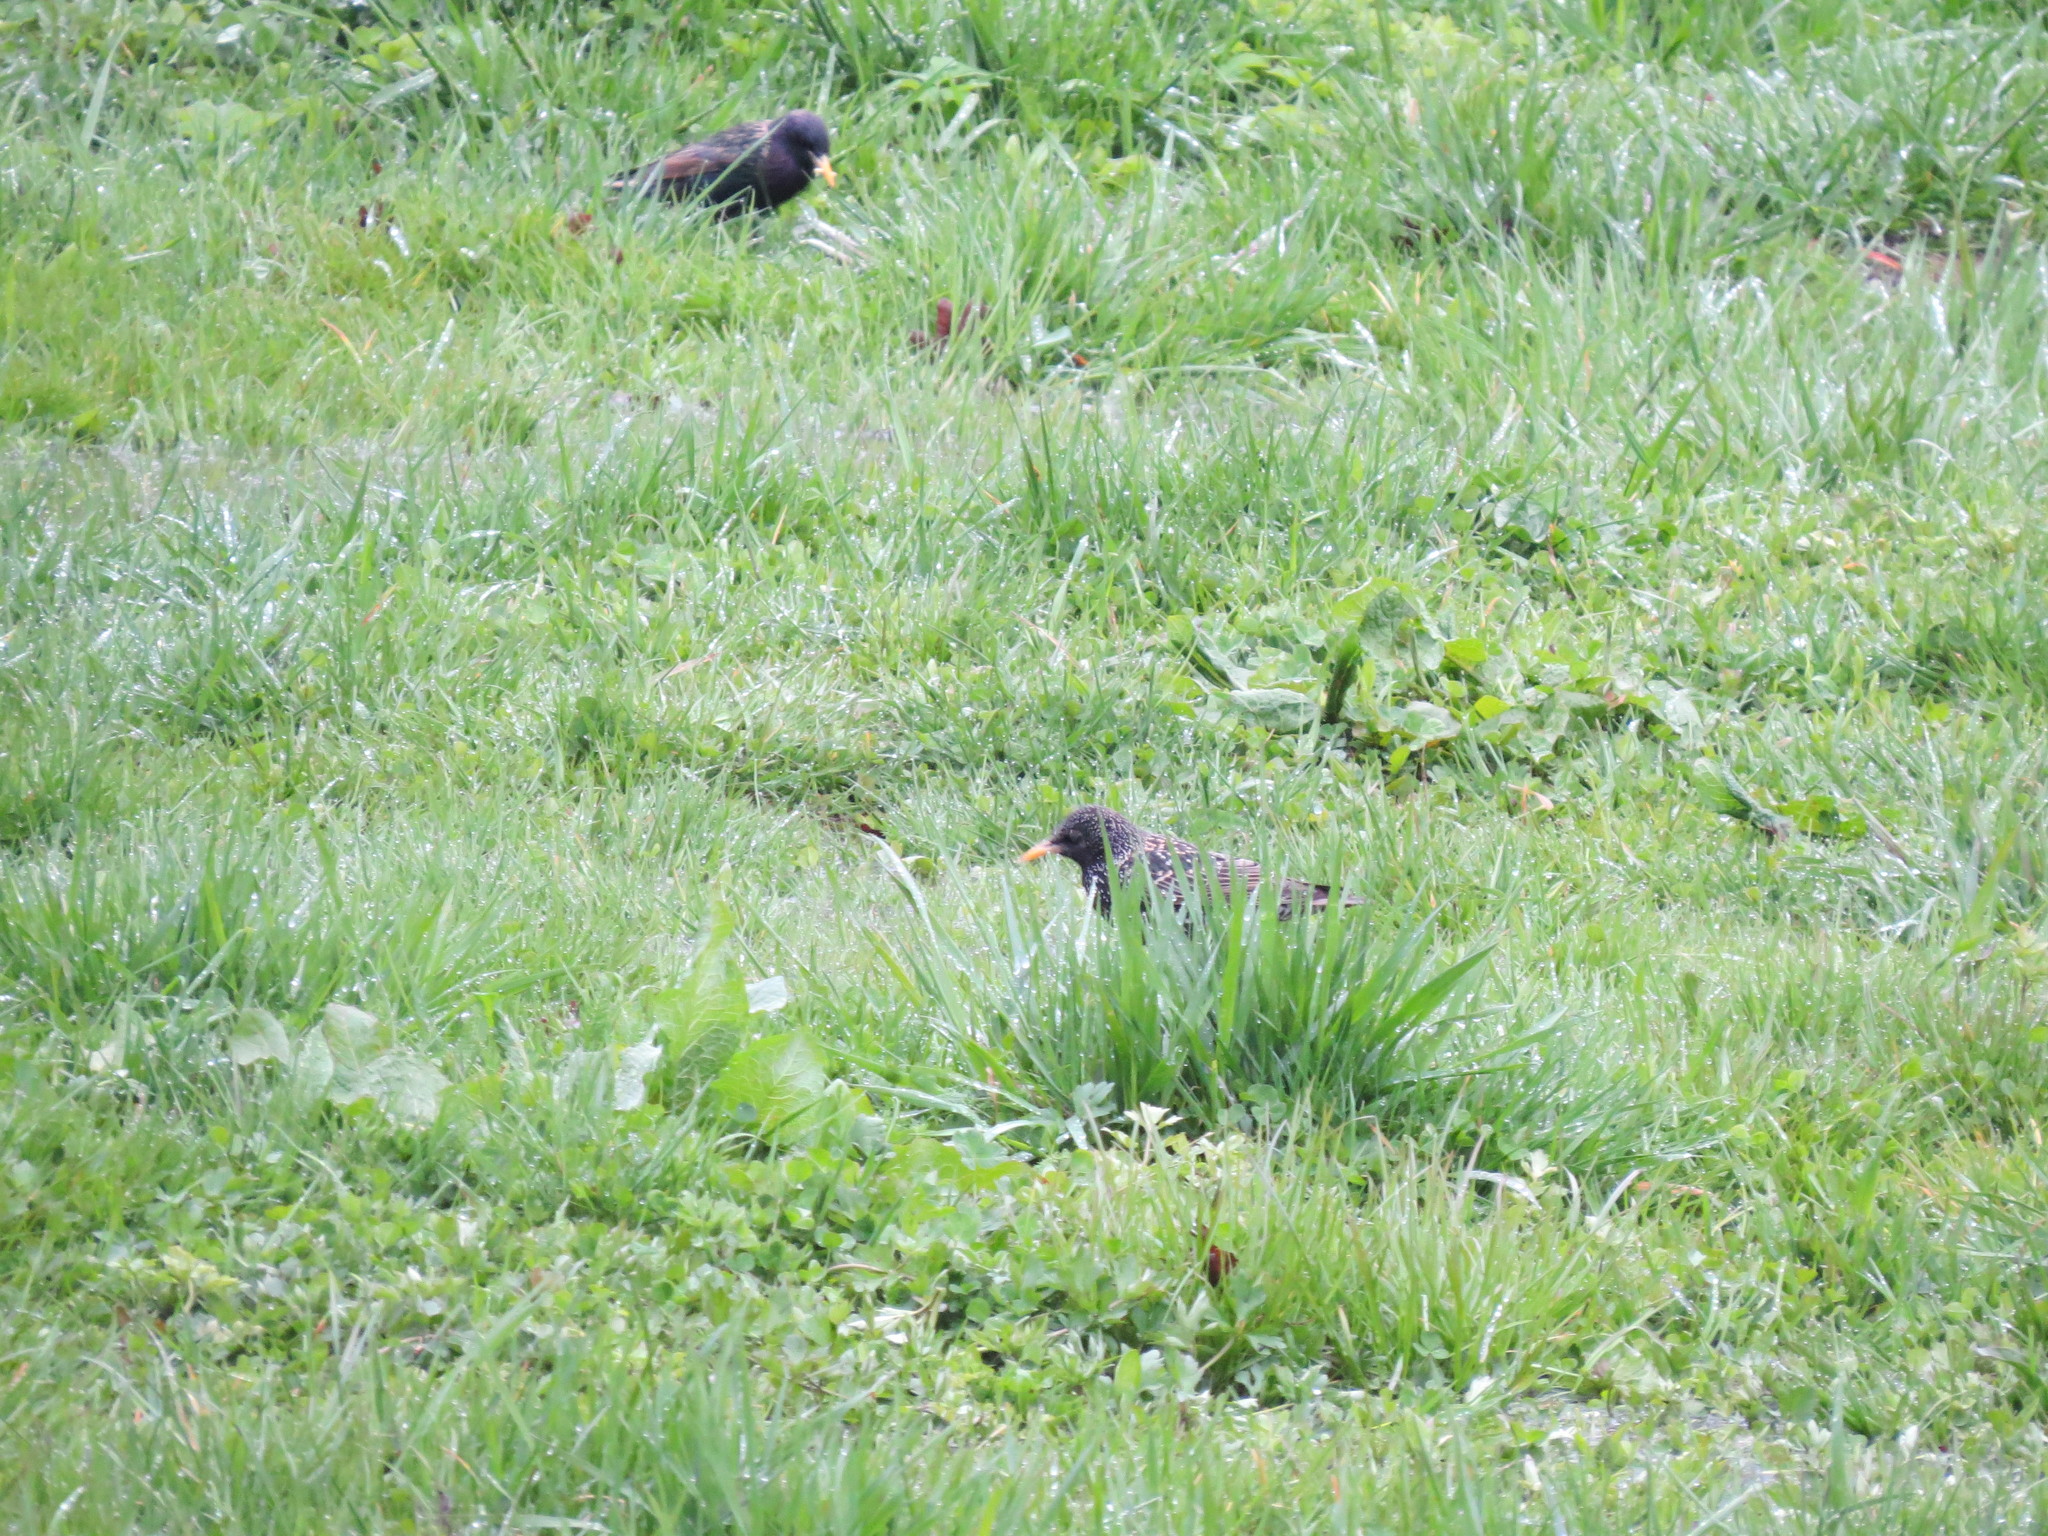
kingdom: Animalia
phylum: Chordata
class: Aves
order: Passeriformes
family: Sturnidae
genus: Sturnus
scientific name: Sturnus vulgaris
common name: Common starling
